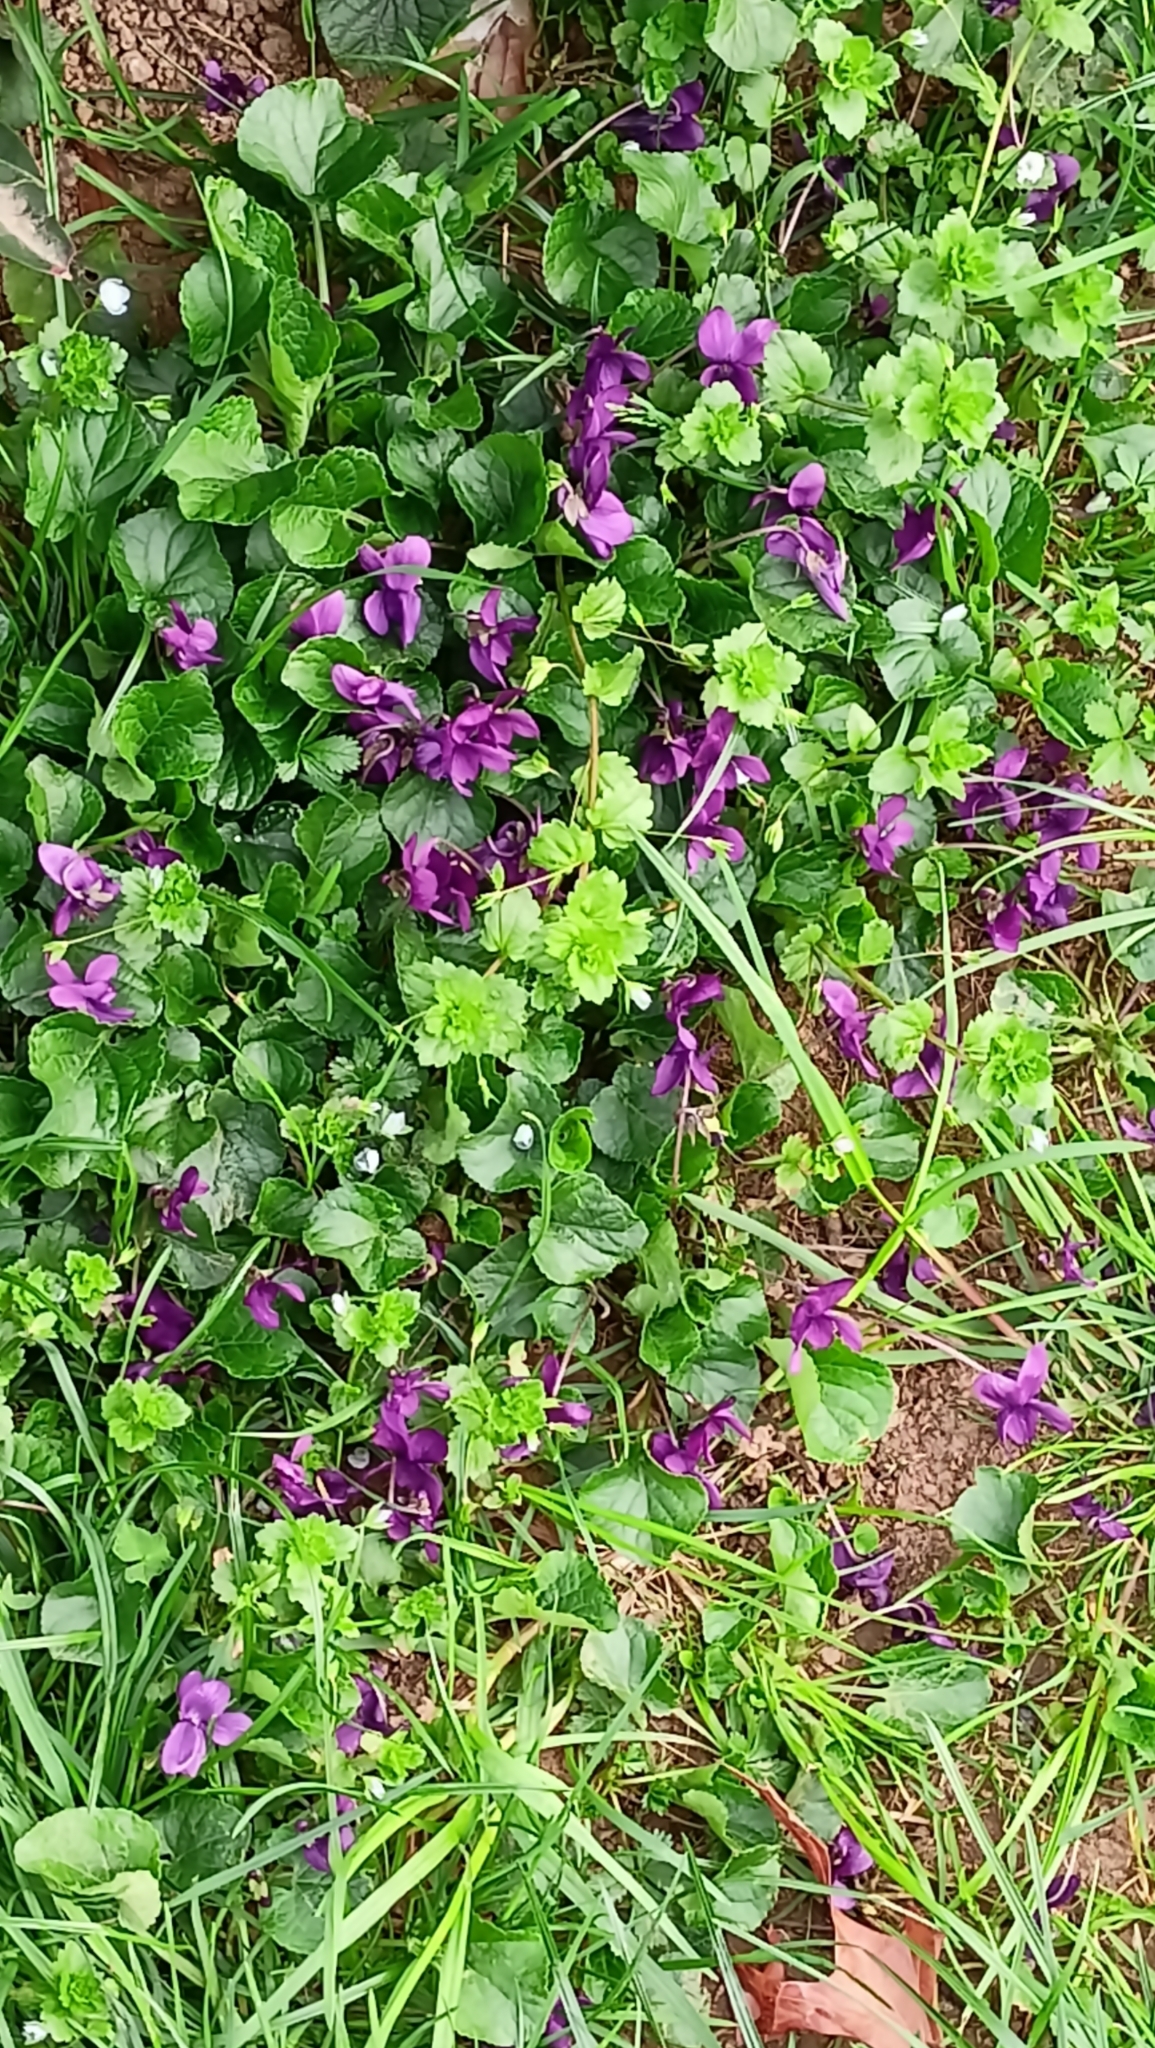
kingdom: Plantae
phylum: Tracheophyta
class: Magnoliopsida
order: Malpighiales
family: Violaceae
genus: Viola
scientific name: Viola odorata
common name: Sweet violet
